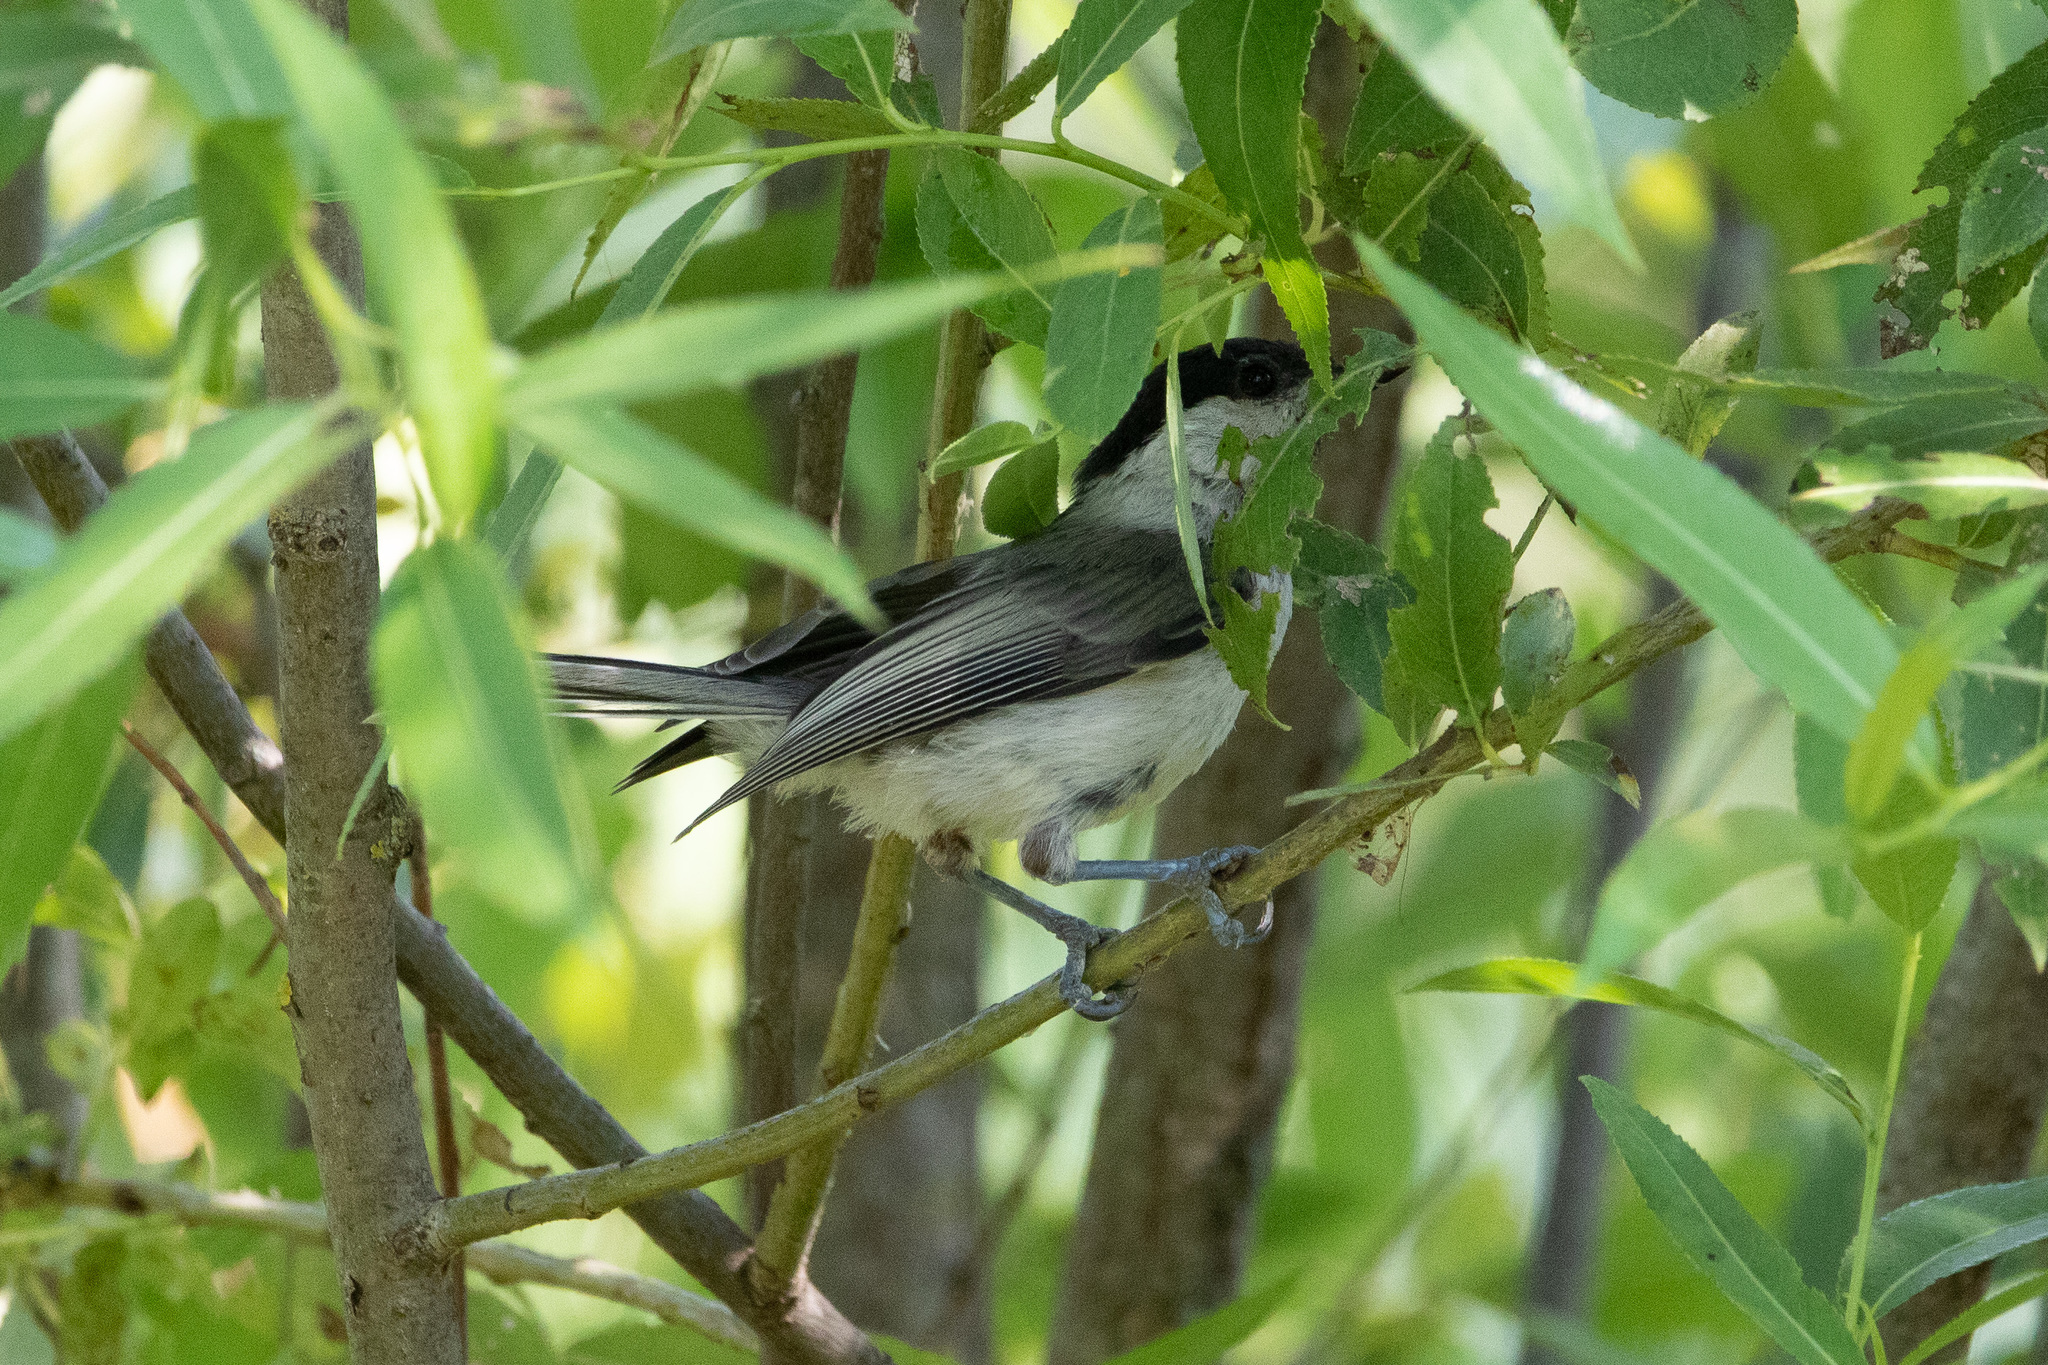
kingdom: Animalia
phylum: Chordata
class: Aves
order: Passeriformes
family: Paridae
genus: Poecile
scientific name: Poecile montanus
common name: Willow tit
